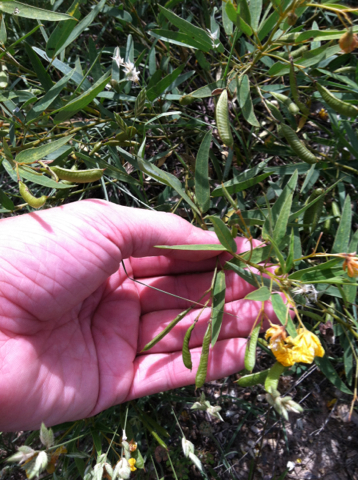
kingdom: Plantae
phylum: Tracheophyta
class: Magnoliopsida
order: Fabales
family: Fabaceae
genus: Senna
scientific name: Senna roemeriana
